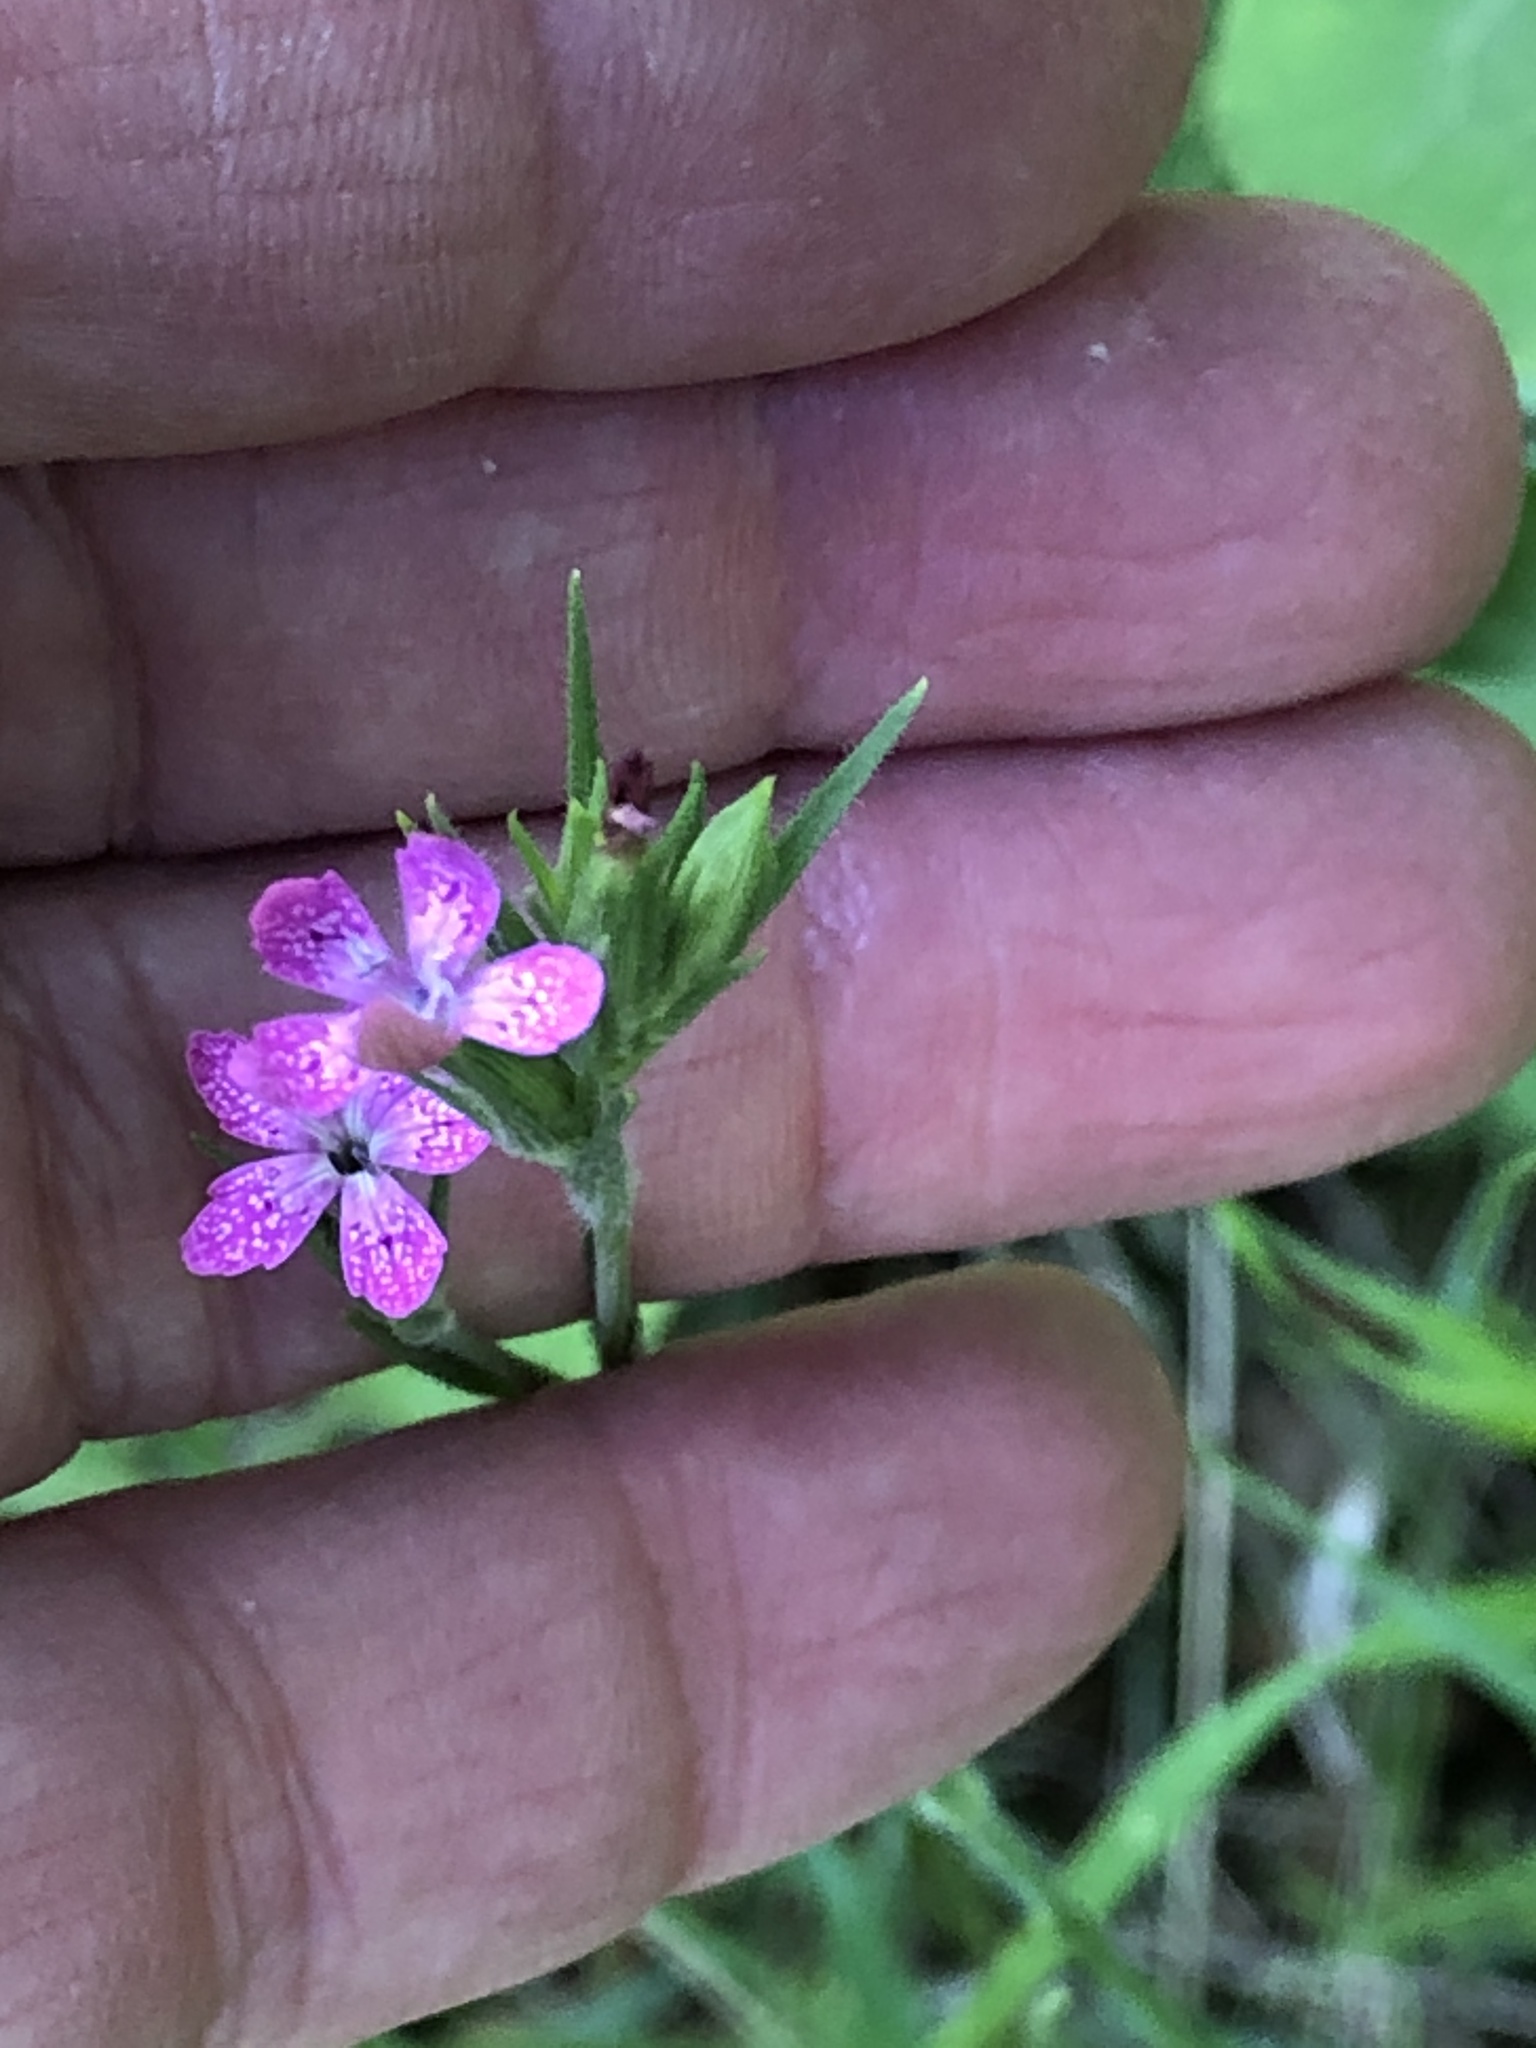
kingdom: Plantae
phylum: Tracheophyta
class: Magnoliopsida
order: Caryophyllales
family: Caryophyllaceae
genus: Dianthus
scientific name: Dianthus armeria
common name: Deptford pink
